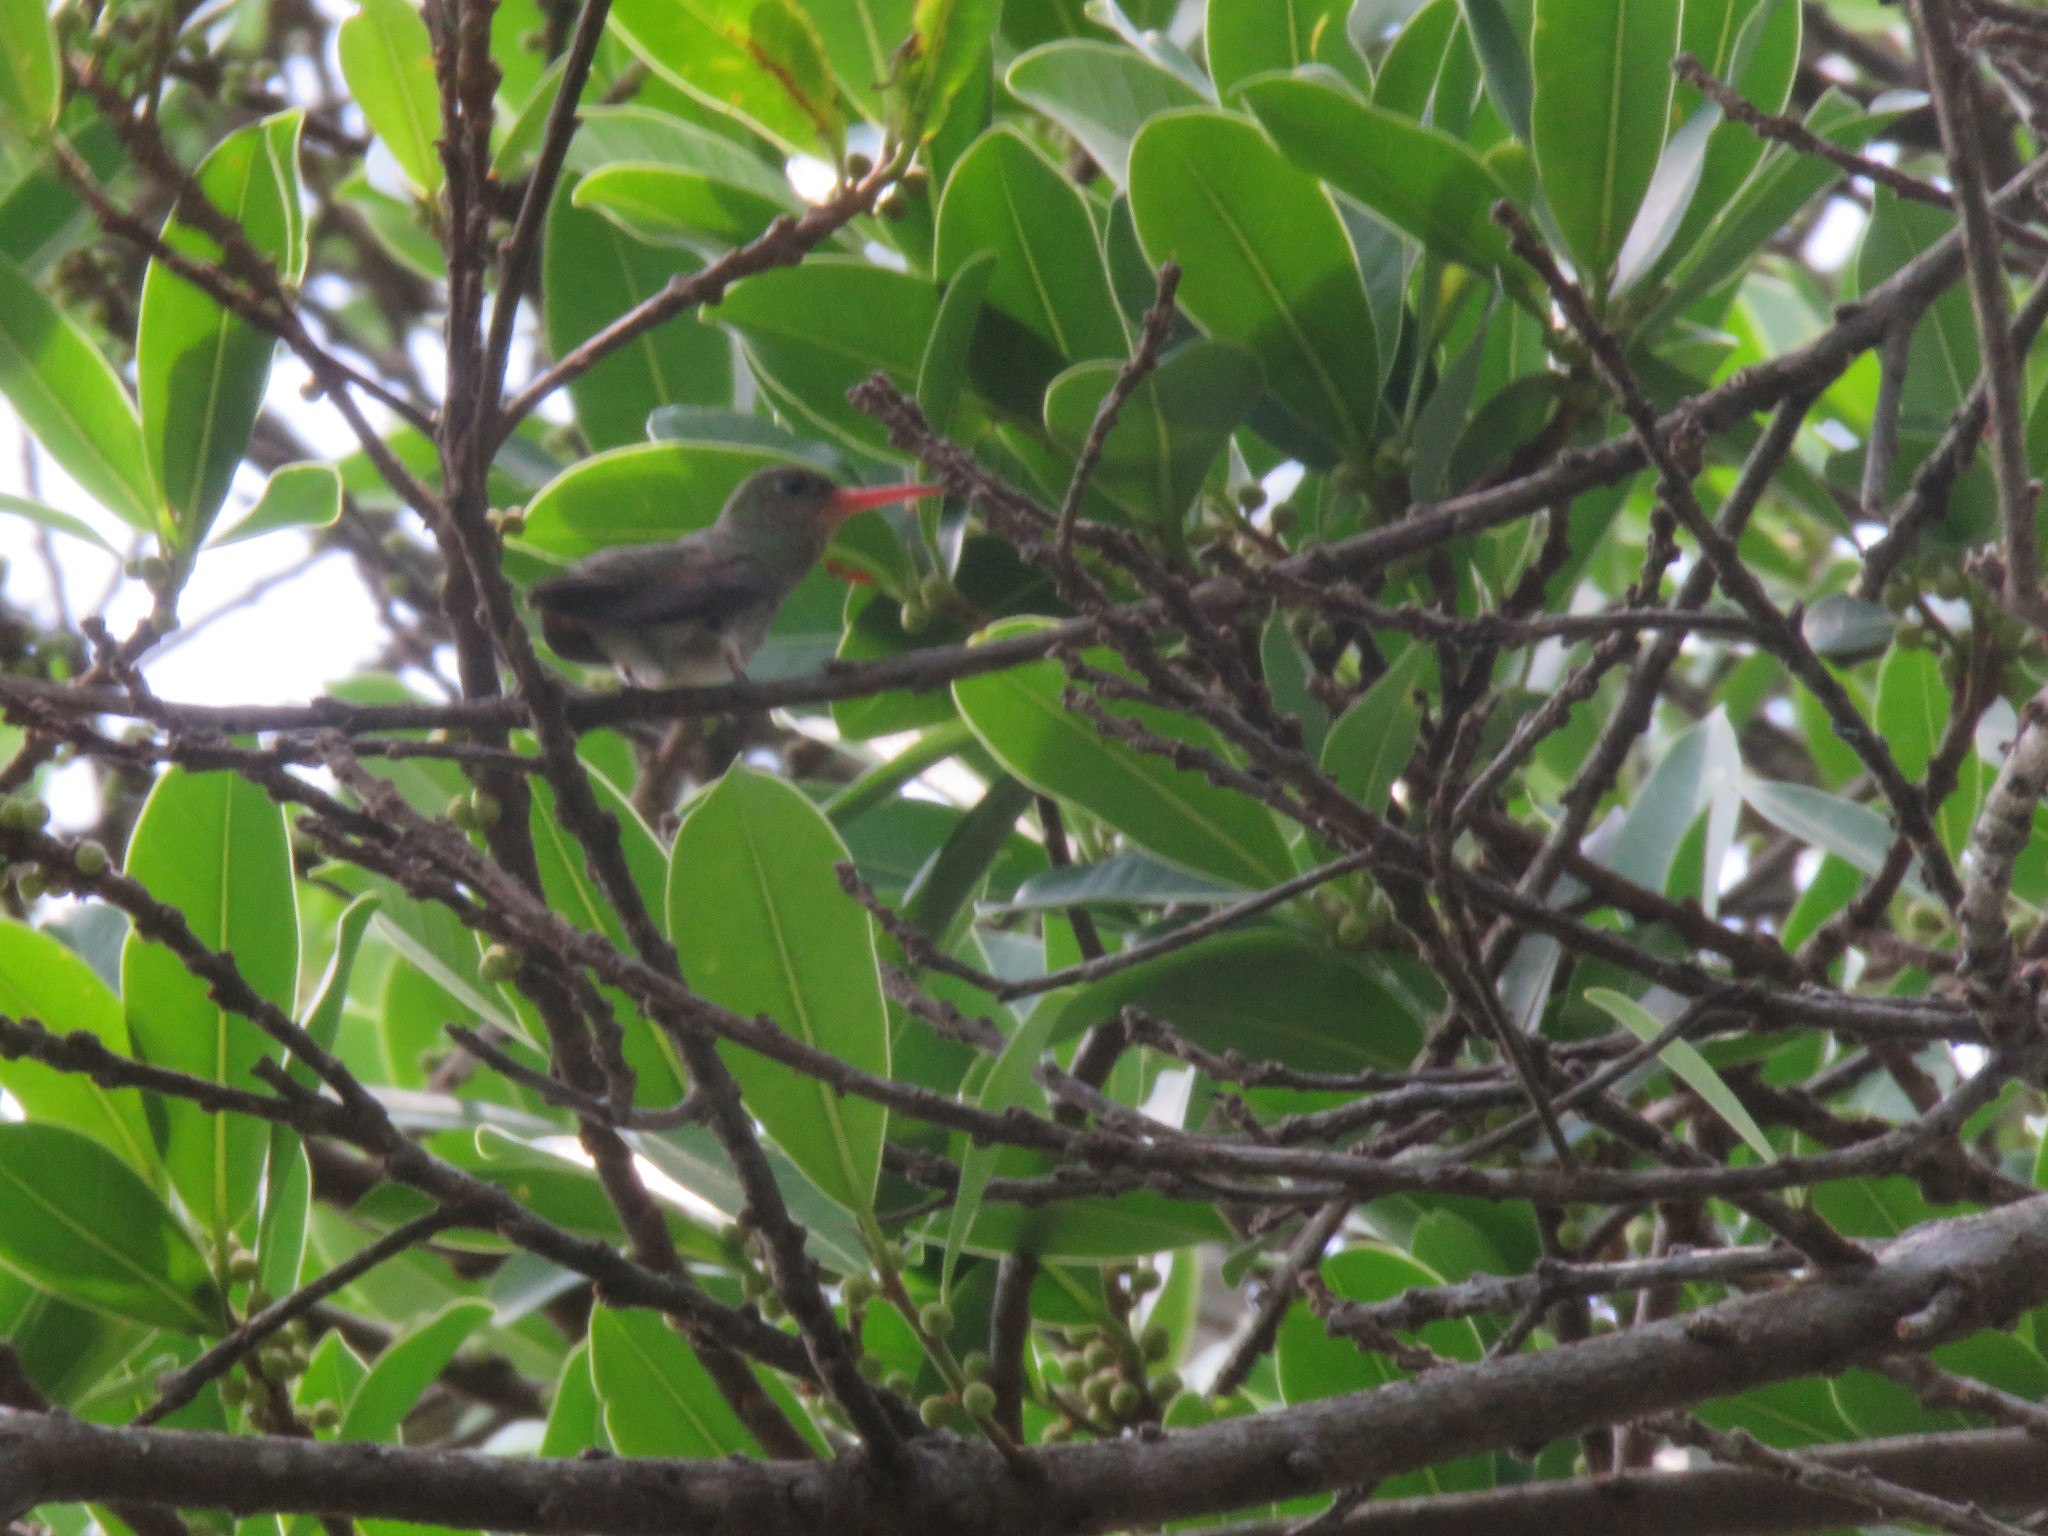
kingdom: Animalia
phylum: Chordata
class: Aves
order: Apodiformes
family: Trochilidae
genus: Hylocharis
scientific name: Hylocharis chrysura
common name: Gilded sapphire
